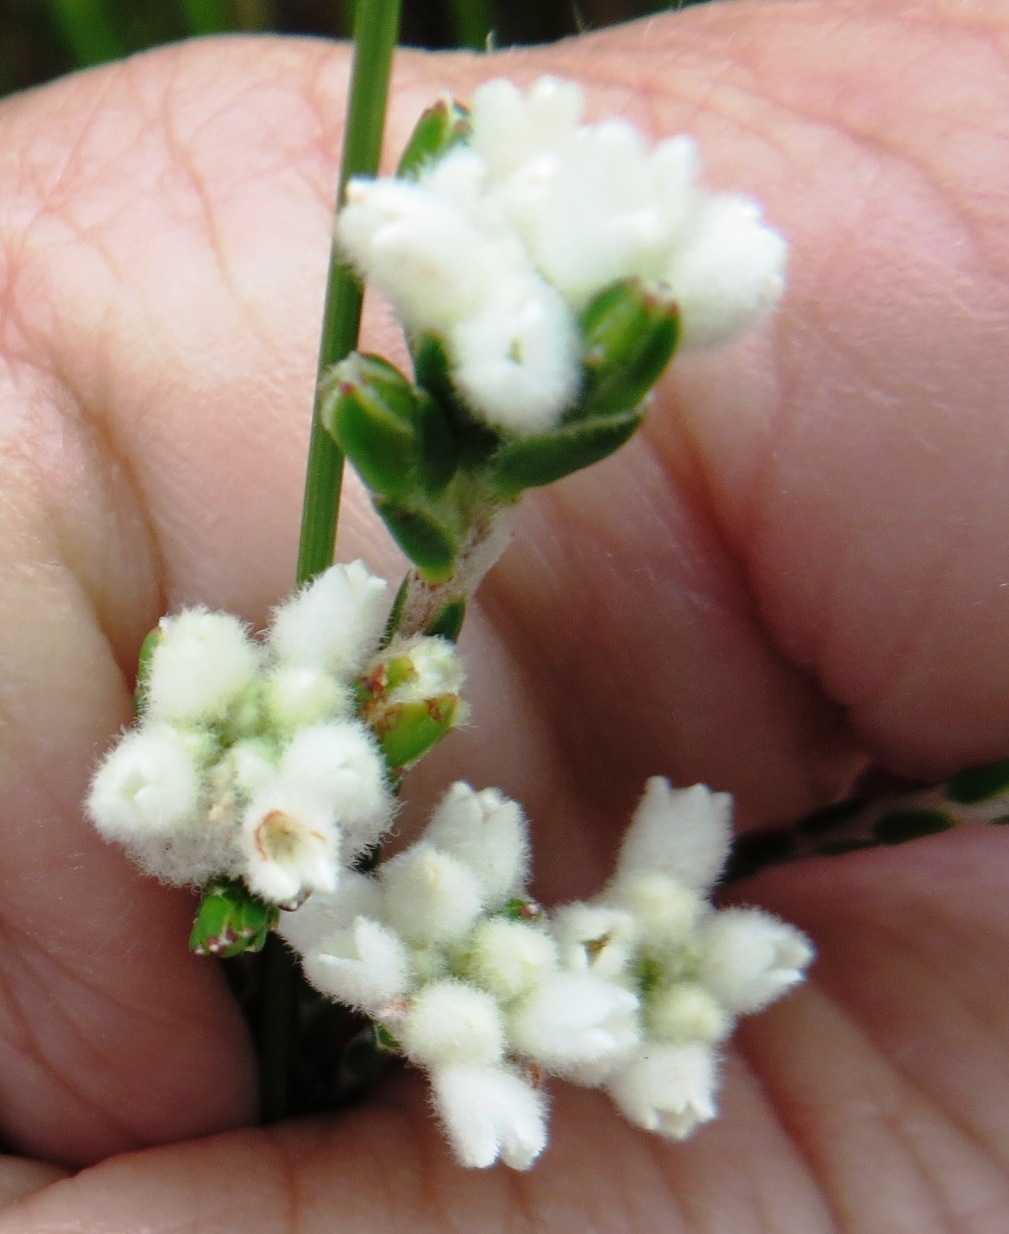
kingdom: Plantae
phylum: Tracheophyta
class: Magnoliopsida
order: Malvales
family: Thymelaeaceae
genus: Lachnaea
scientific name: Lachnaea greytonensis
